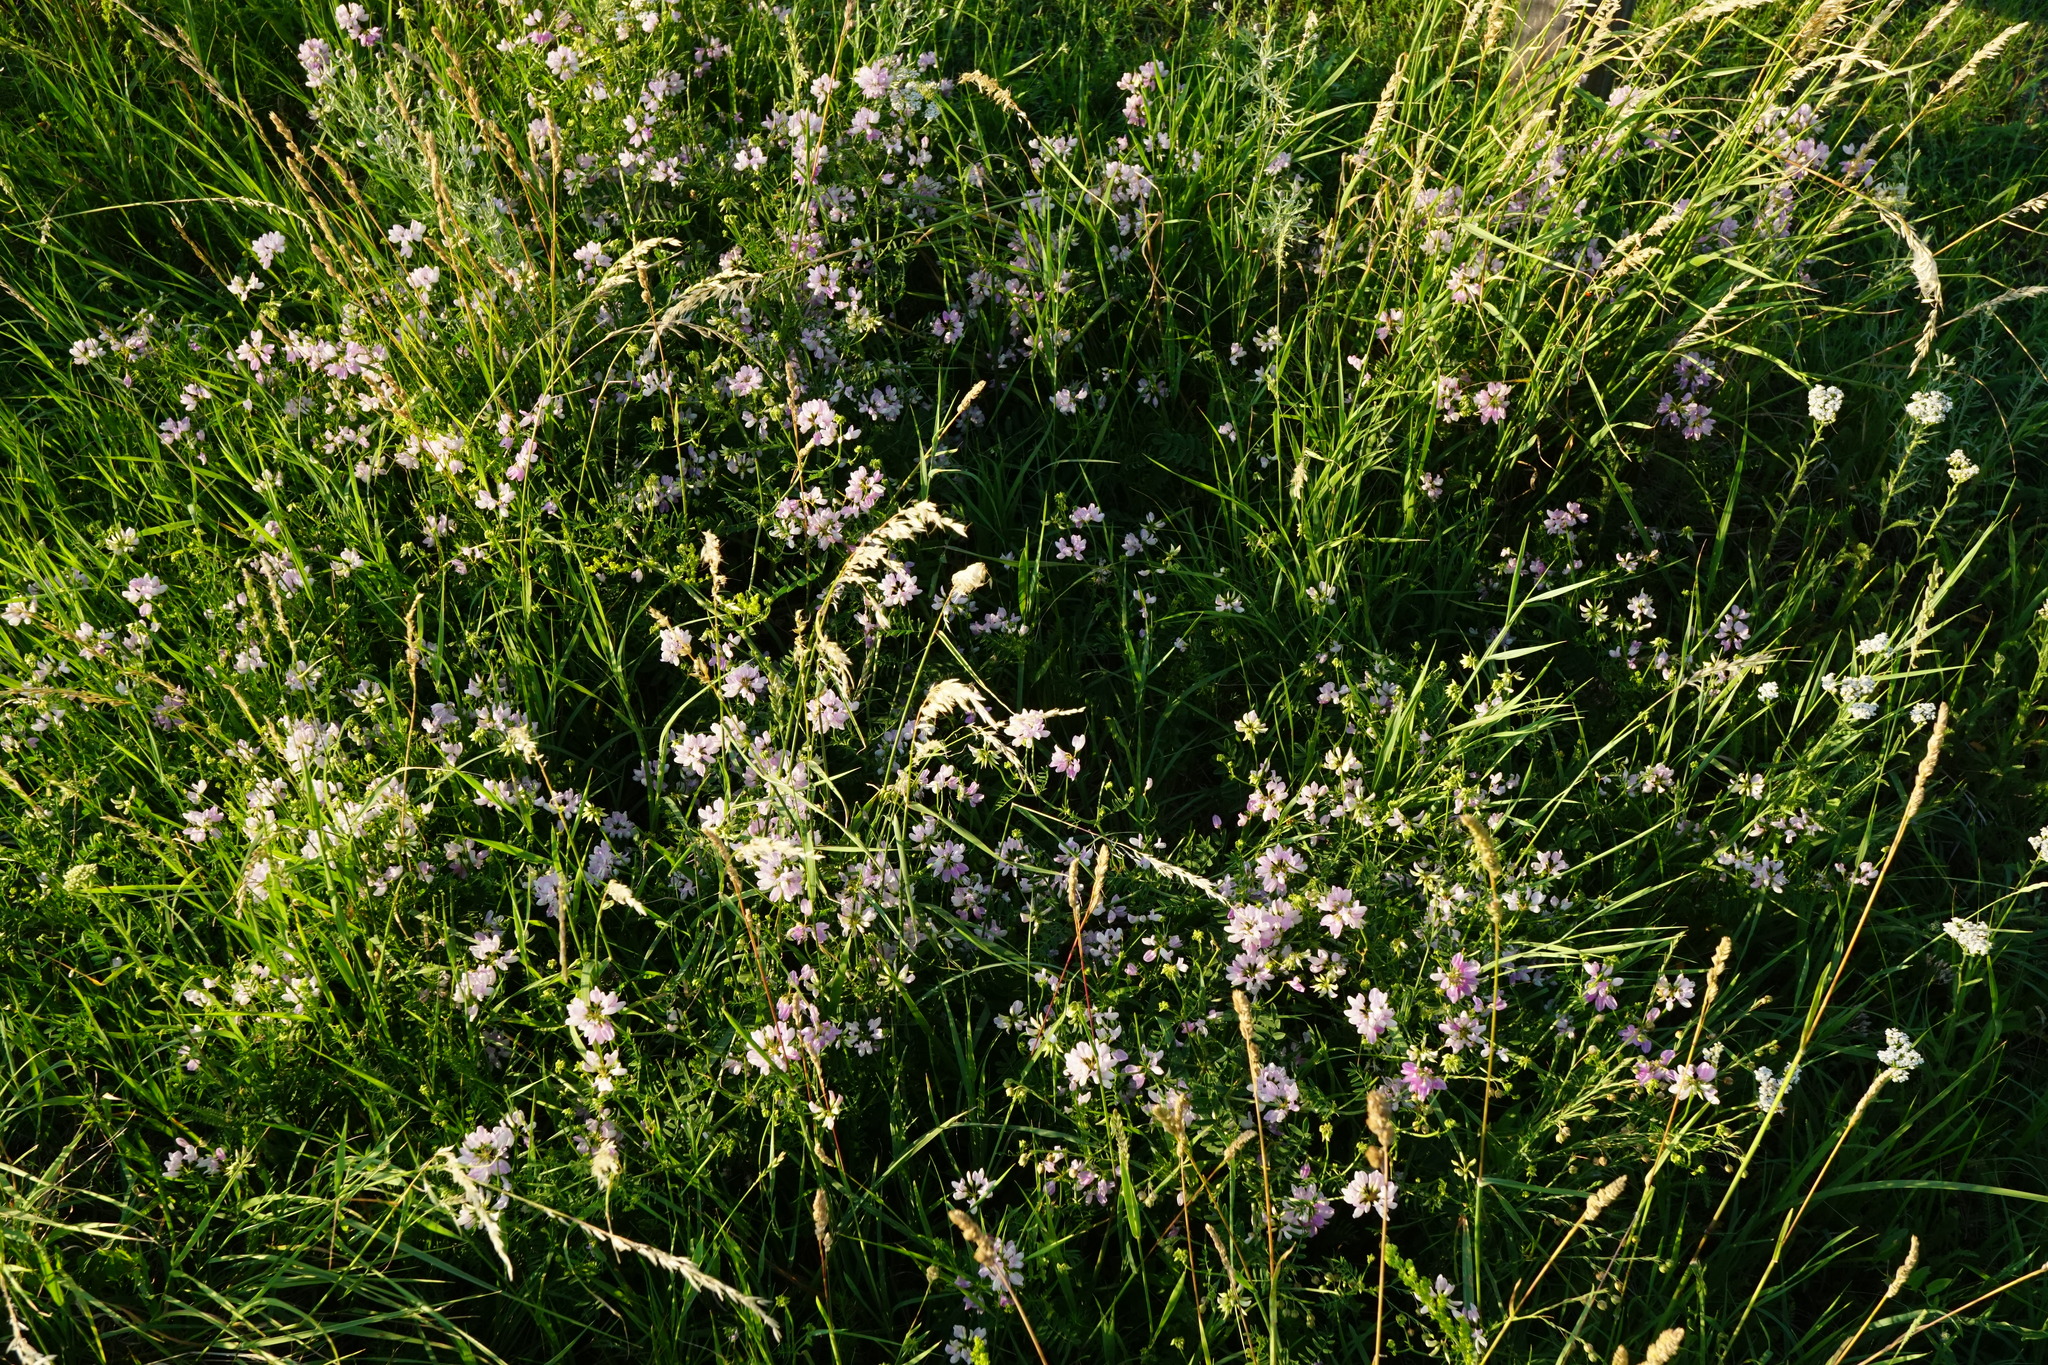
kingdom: Plantae
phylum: Tracheophyta
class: Magnoliopsida
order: Fabales
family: Fabaceae
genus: Coronilla
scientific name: Coronilla varia
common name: Crownvetch
